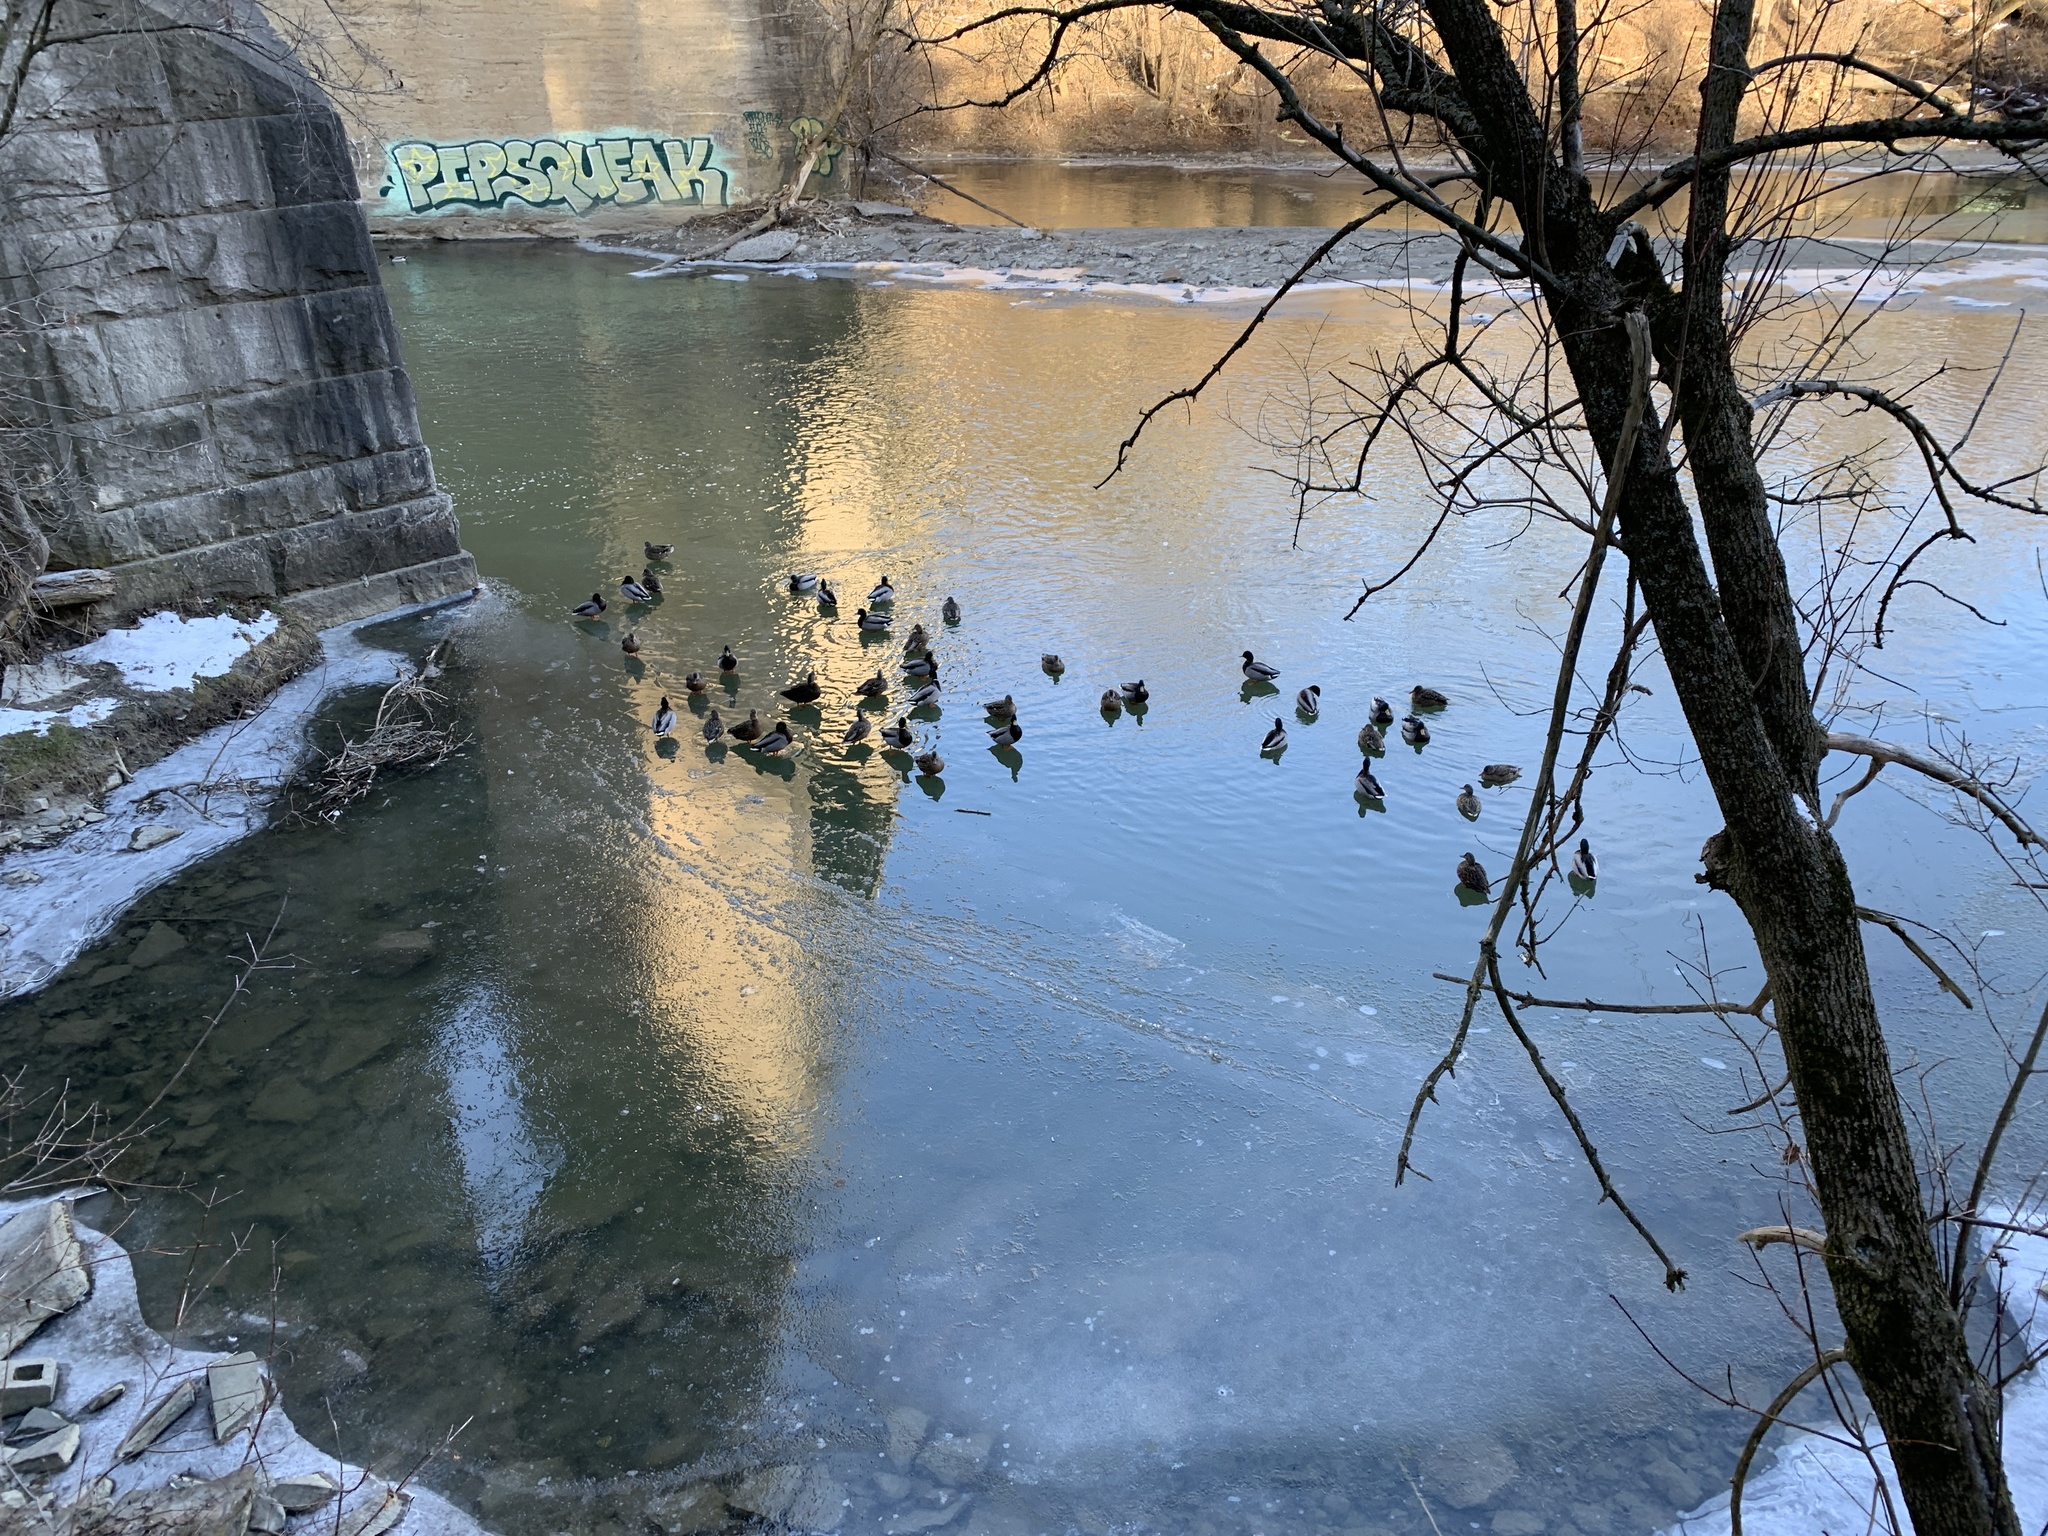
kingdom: Animalia
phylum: Chordata
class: Aves
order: Anseriformes
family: Anatidae
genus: Anas
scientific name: Anas platyrhynchos
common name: Mallard
